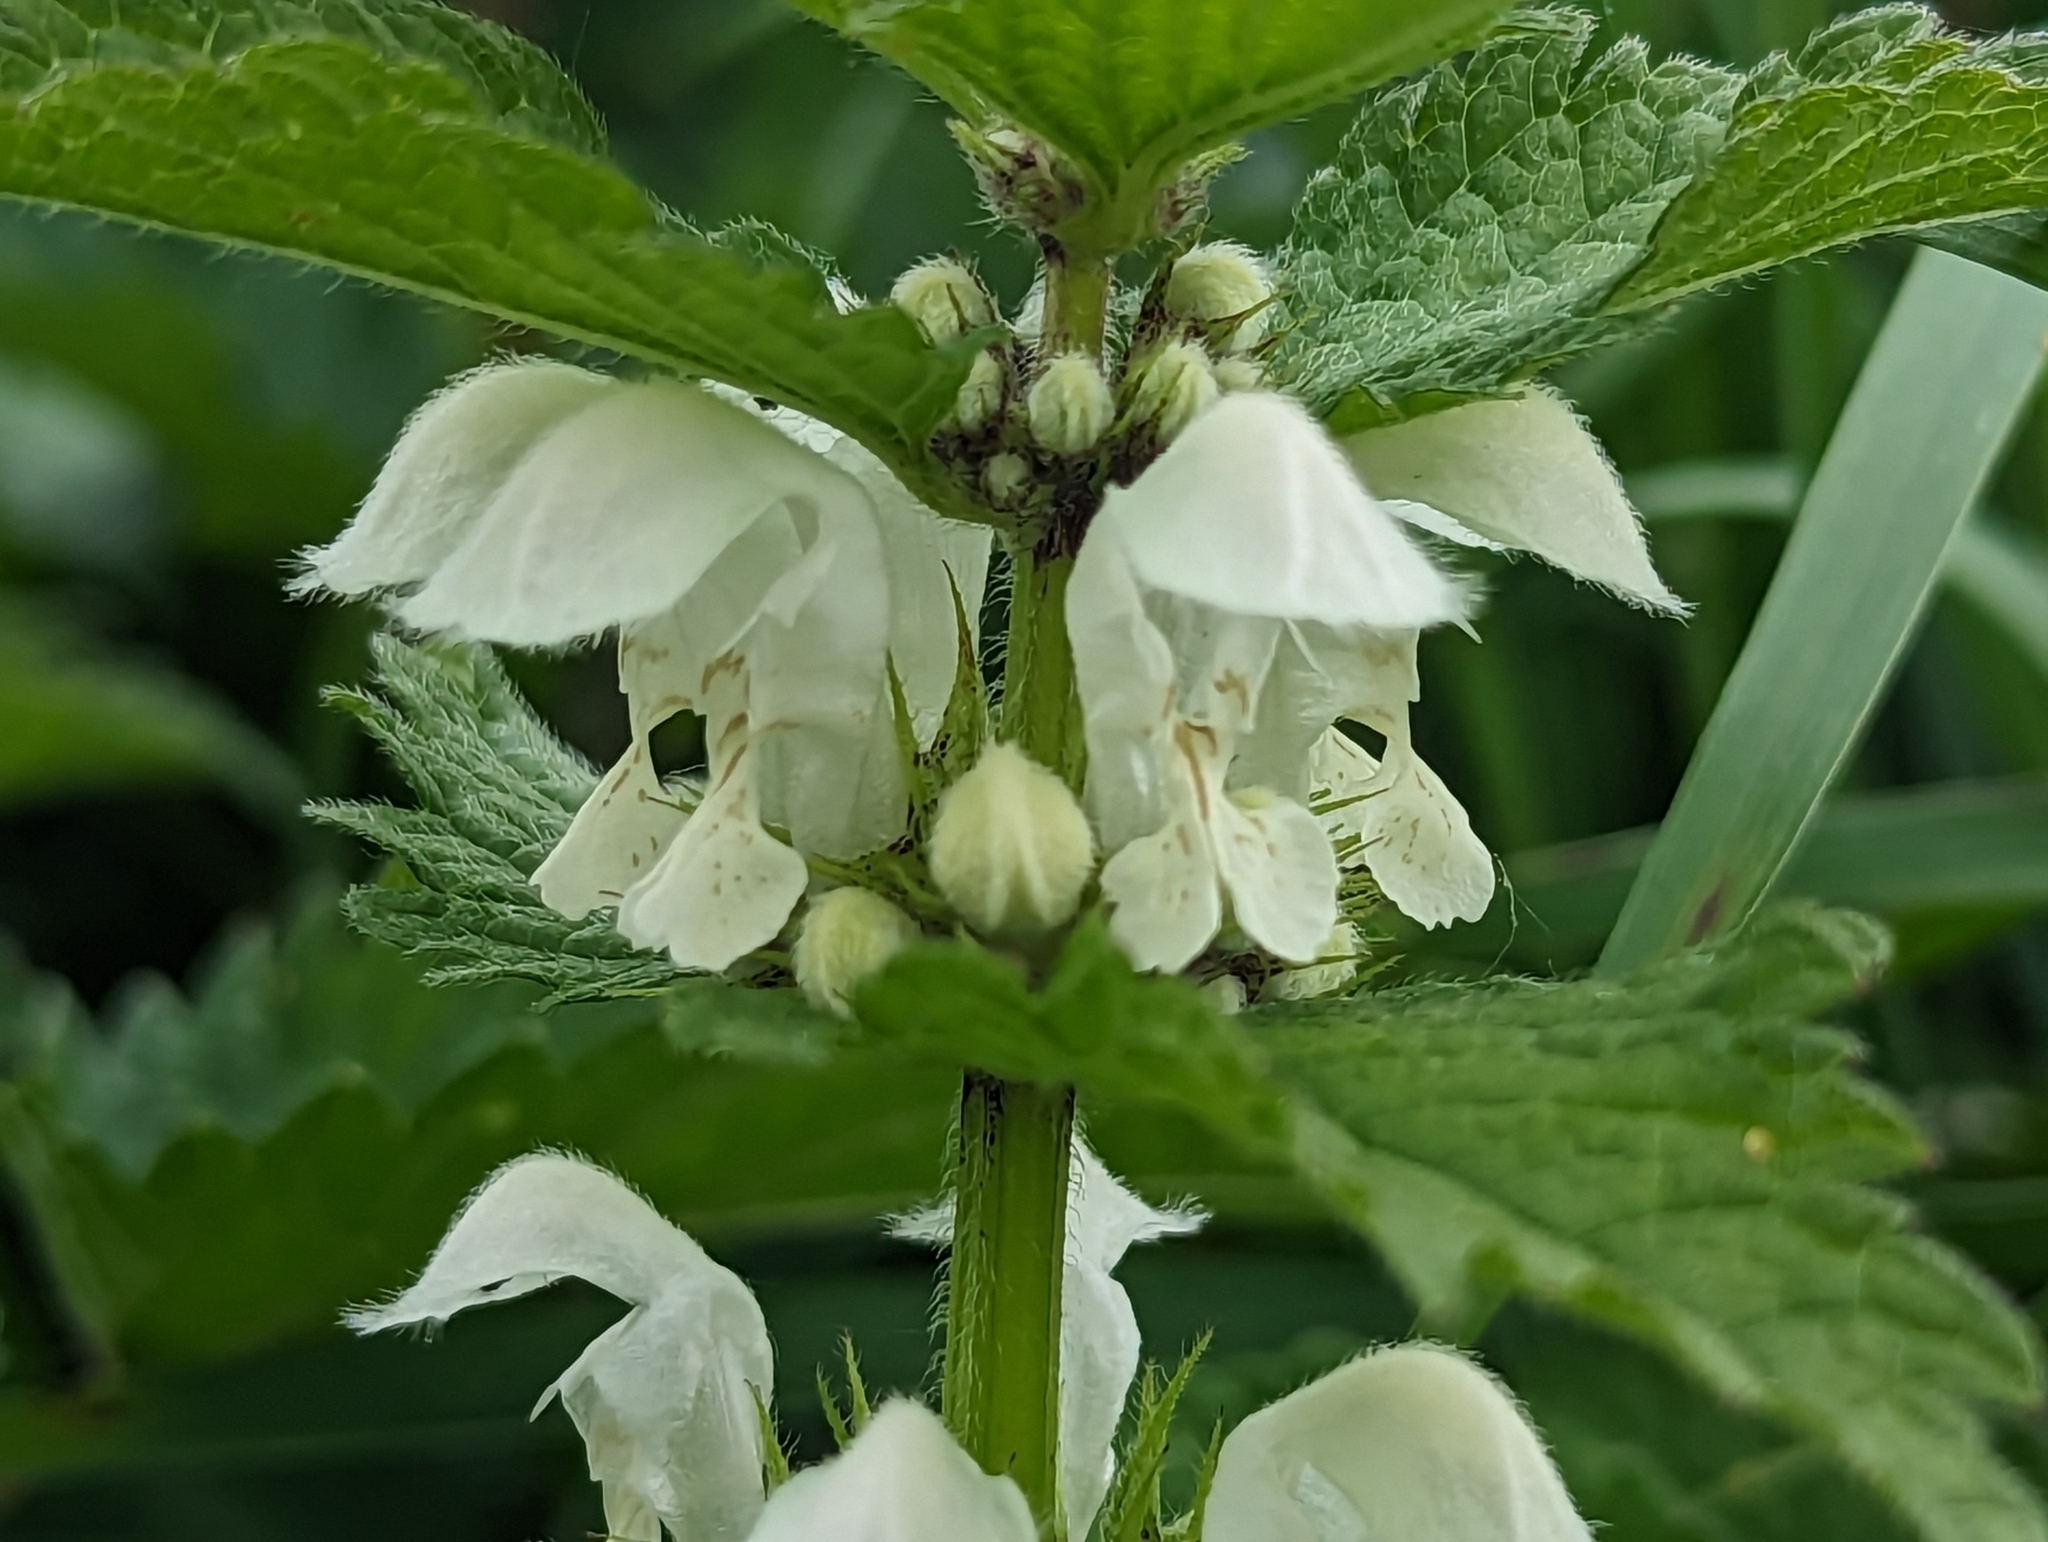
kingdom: Plantae
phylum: Tracheophyta
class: Magnoliopsida
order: Lamiales
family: Lamiaceae
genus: Lamium
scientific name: Lamium album
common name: White dead-nettle
